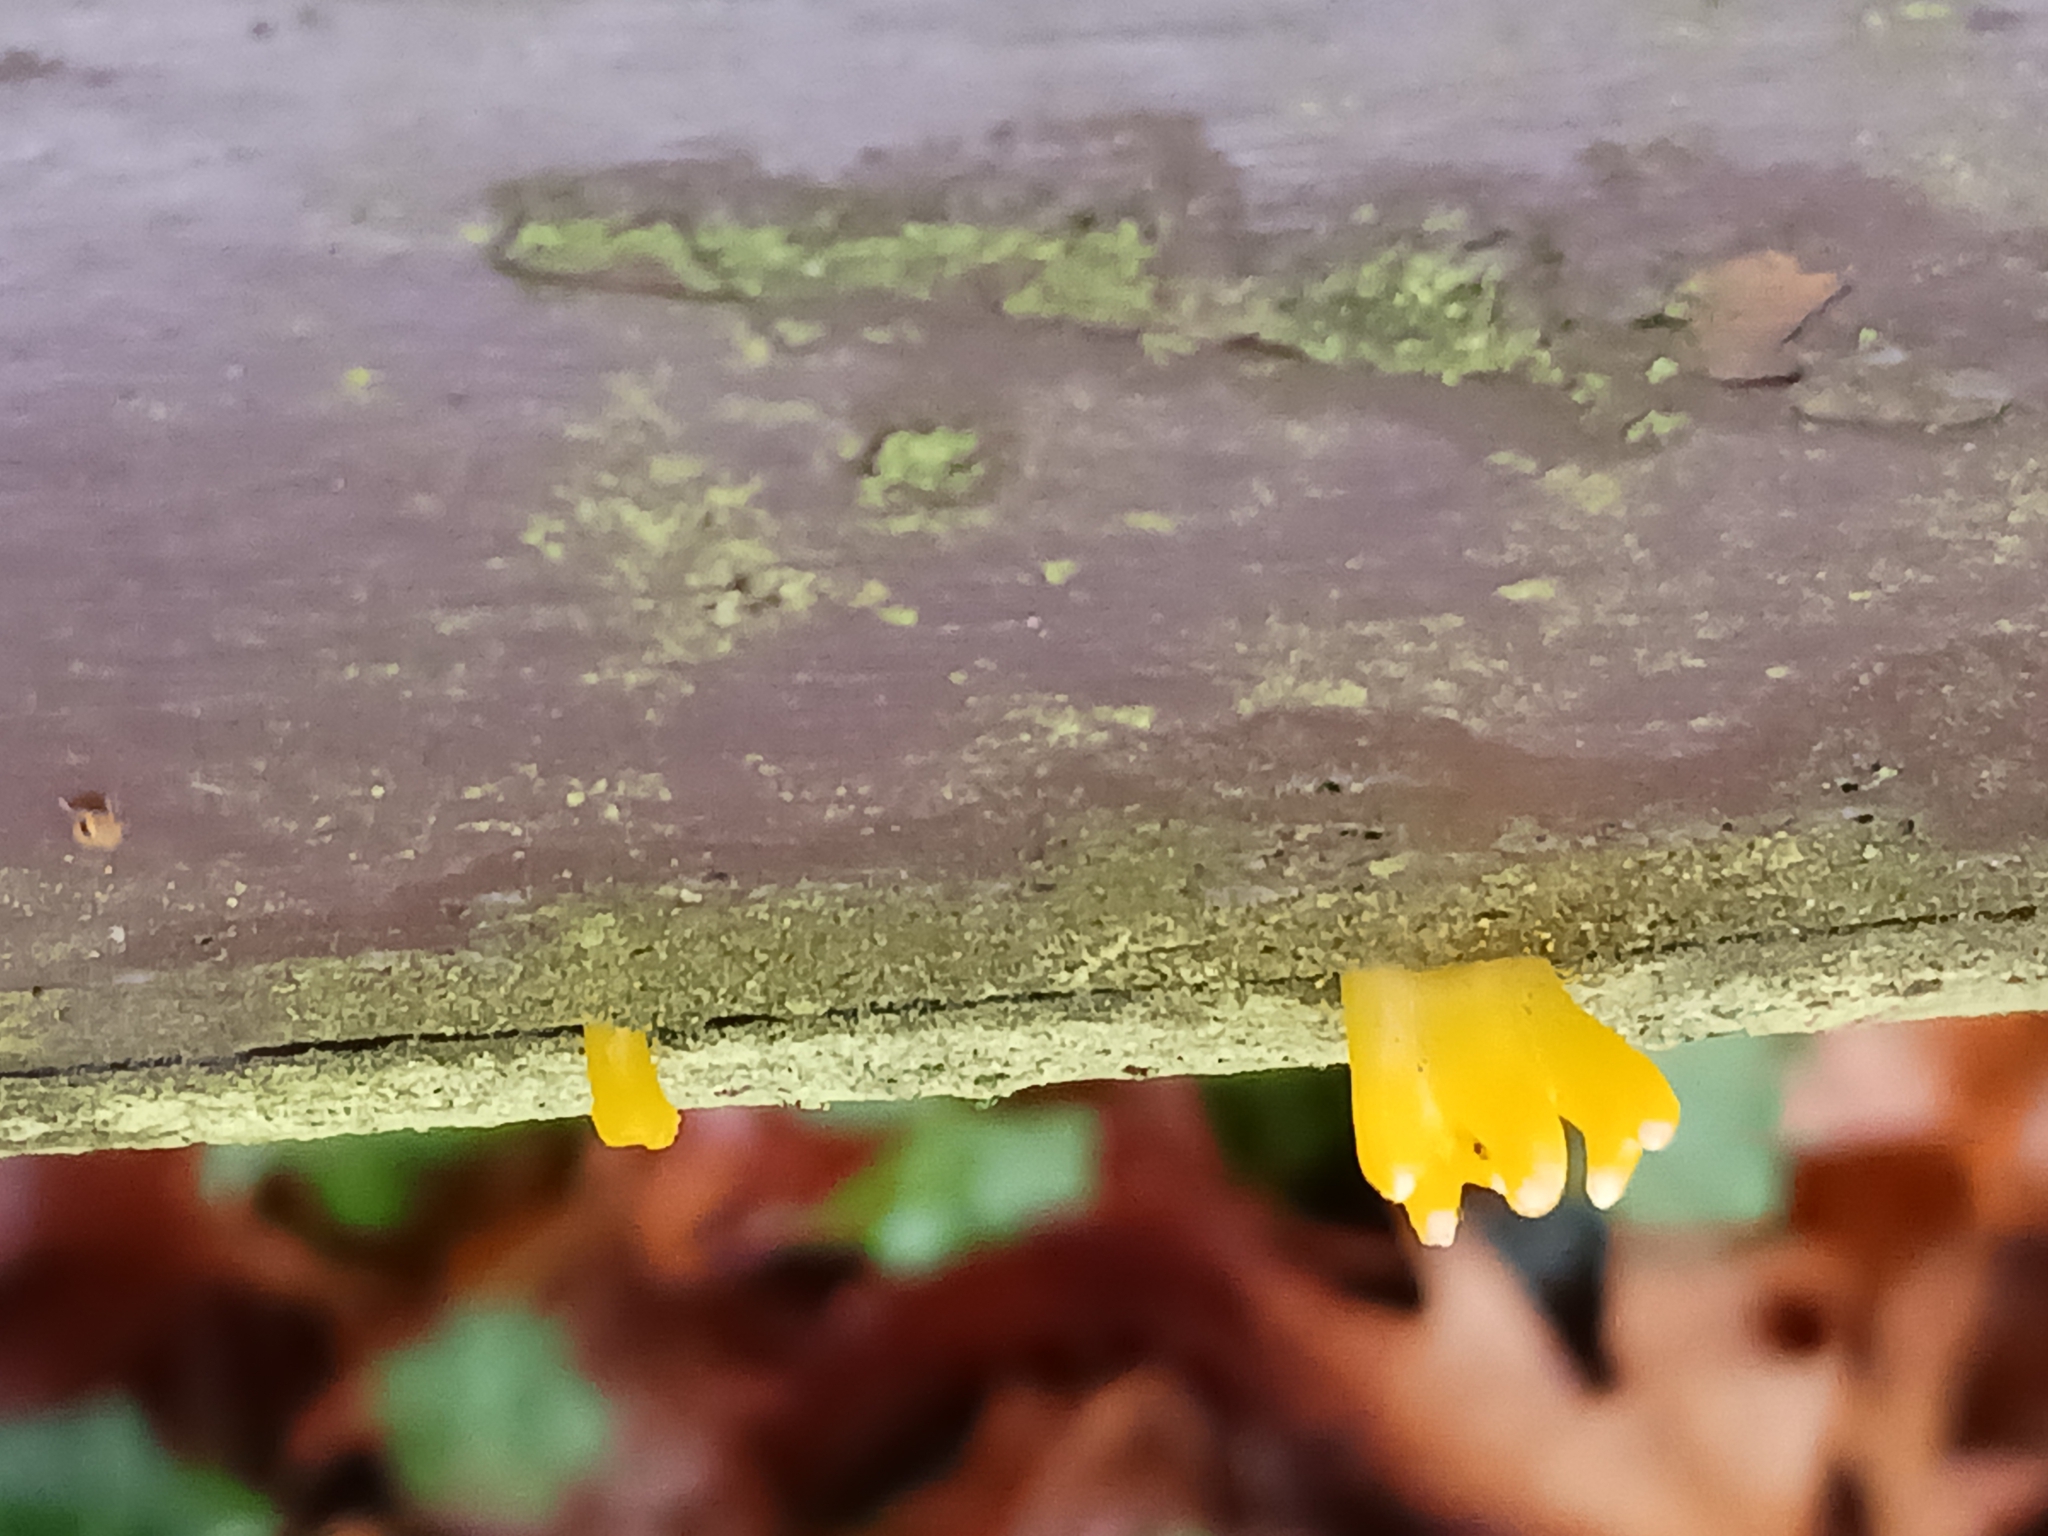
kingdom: Fungi
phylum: Basidiomycota
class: Dacrymycetes
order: Dacrymycetales
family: Dacrymycetaceae
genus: Calocera
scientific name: Calocera viscosa
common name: Yellow stagshorn
